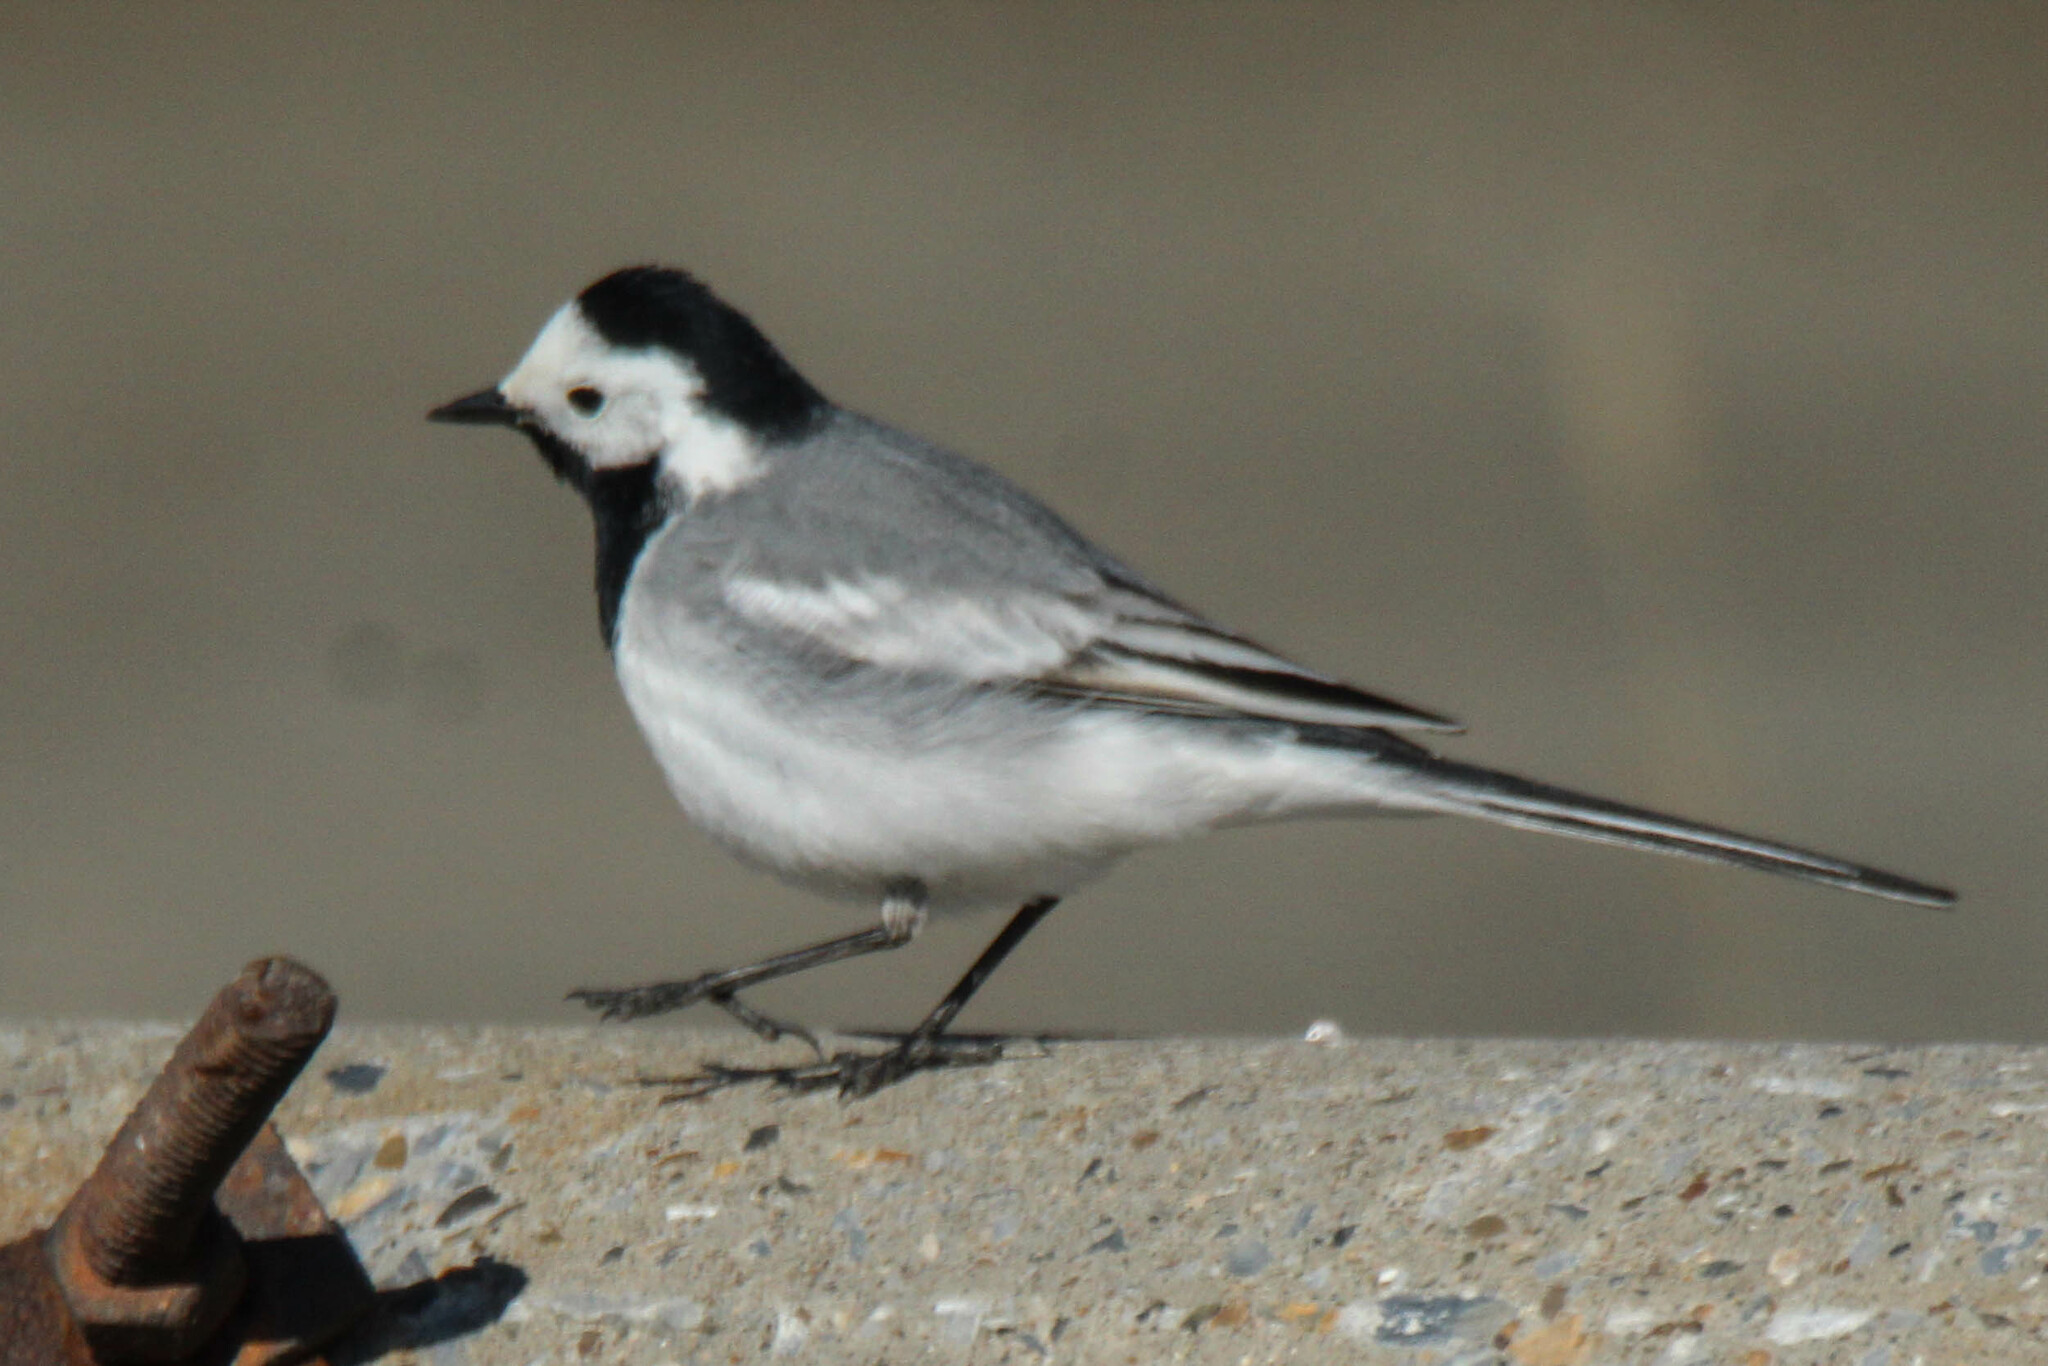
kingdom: Animalia
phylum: Chordata
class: Aves
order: Passeriformes
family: Motacillidae
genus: Motacilla
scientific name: Motacilla alba
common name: White wagtail
